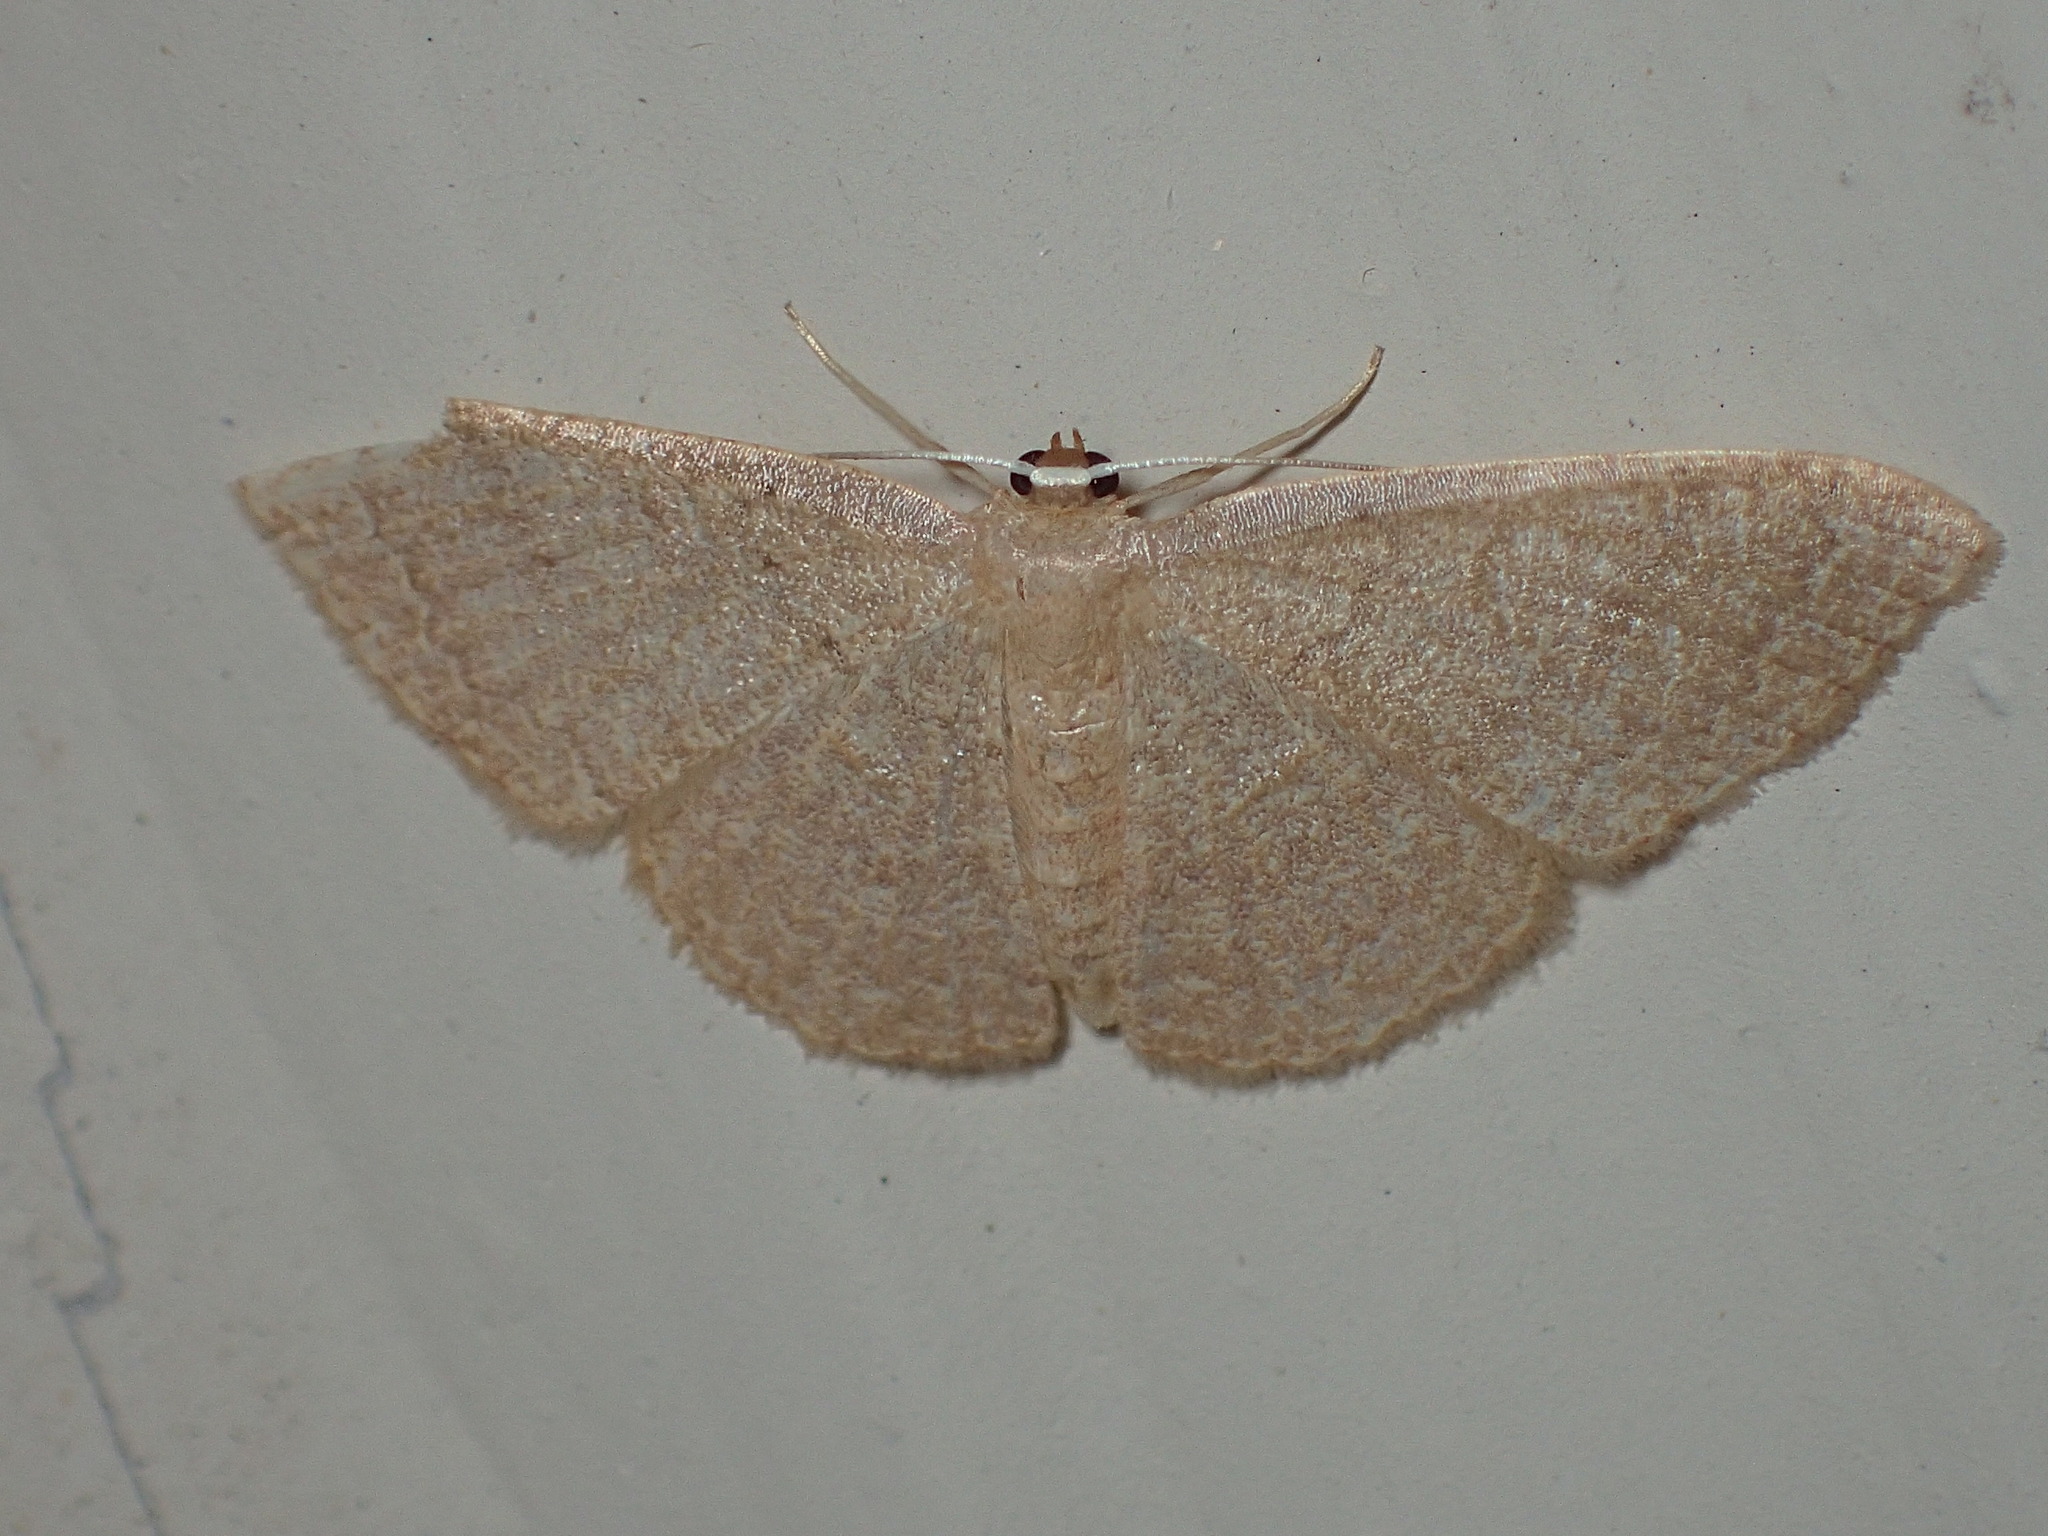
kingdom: Animalia
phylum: Arthropoda
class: Insecta
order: Lepidoptera
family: Geometridae
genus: Pleuroprucha
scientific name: Pleuroprucha insulsaria
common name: Common tan wave
